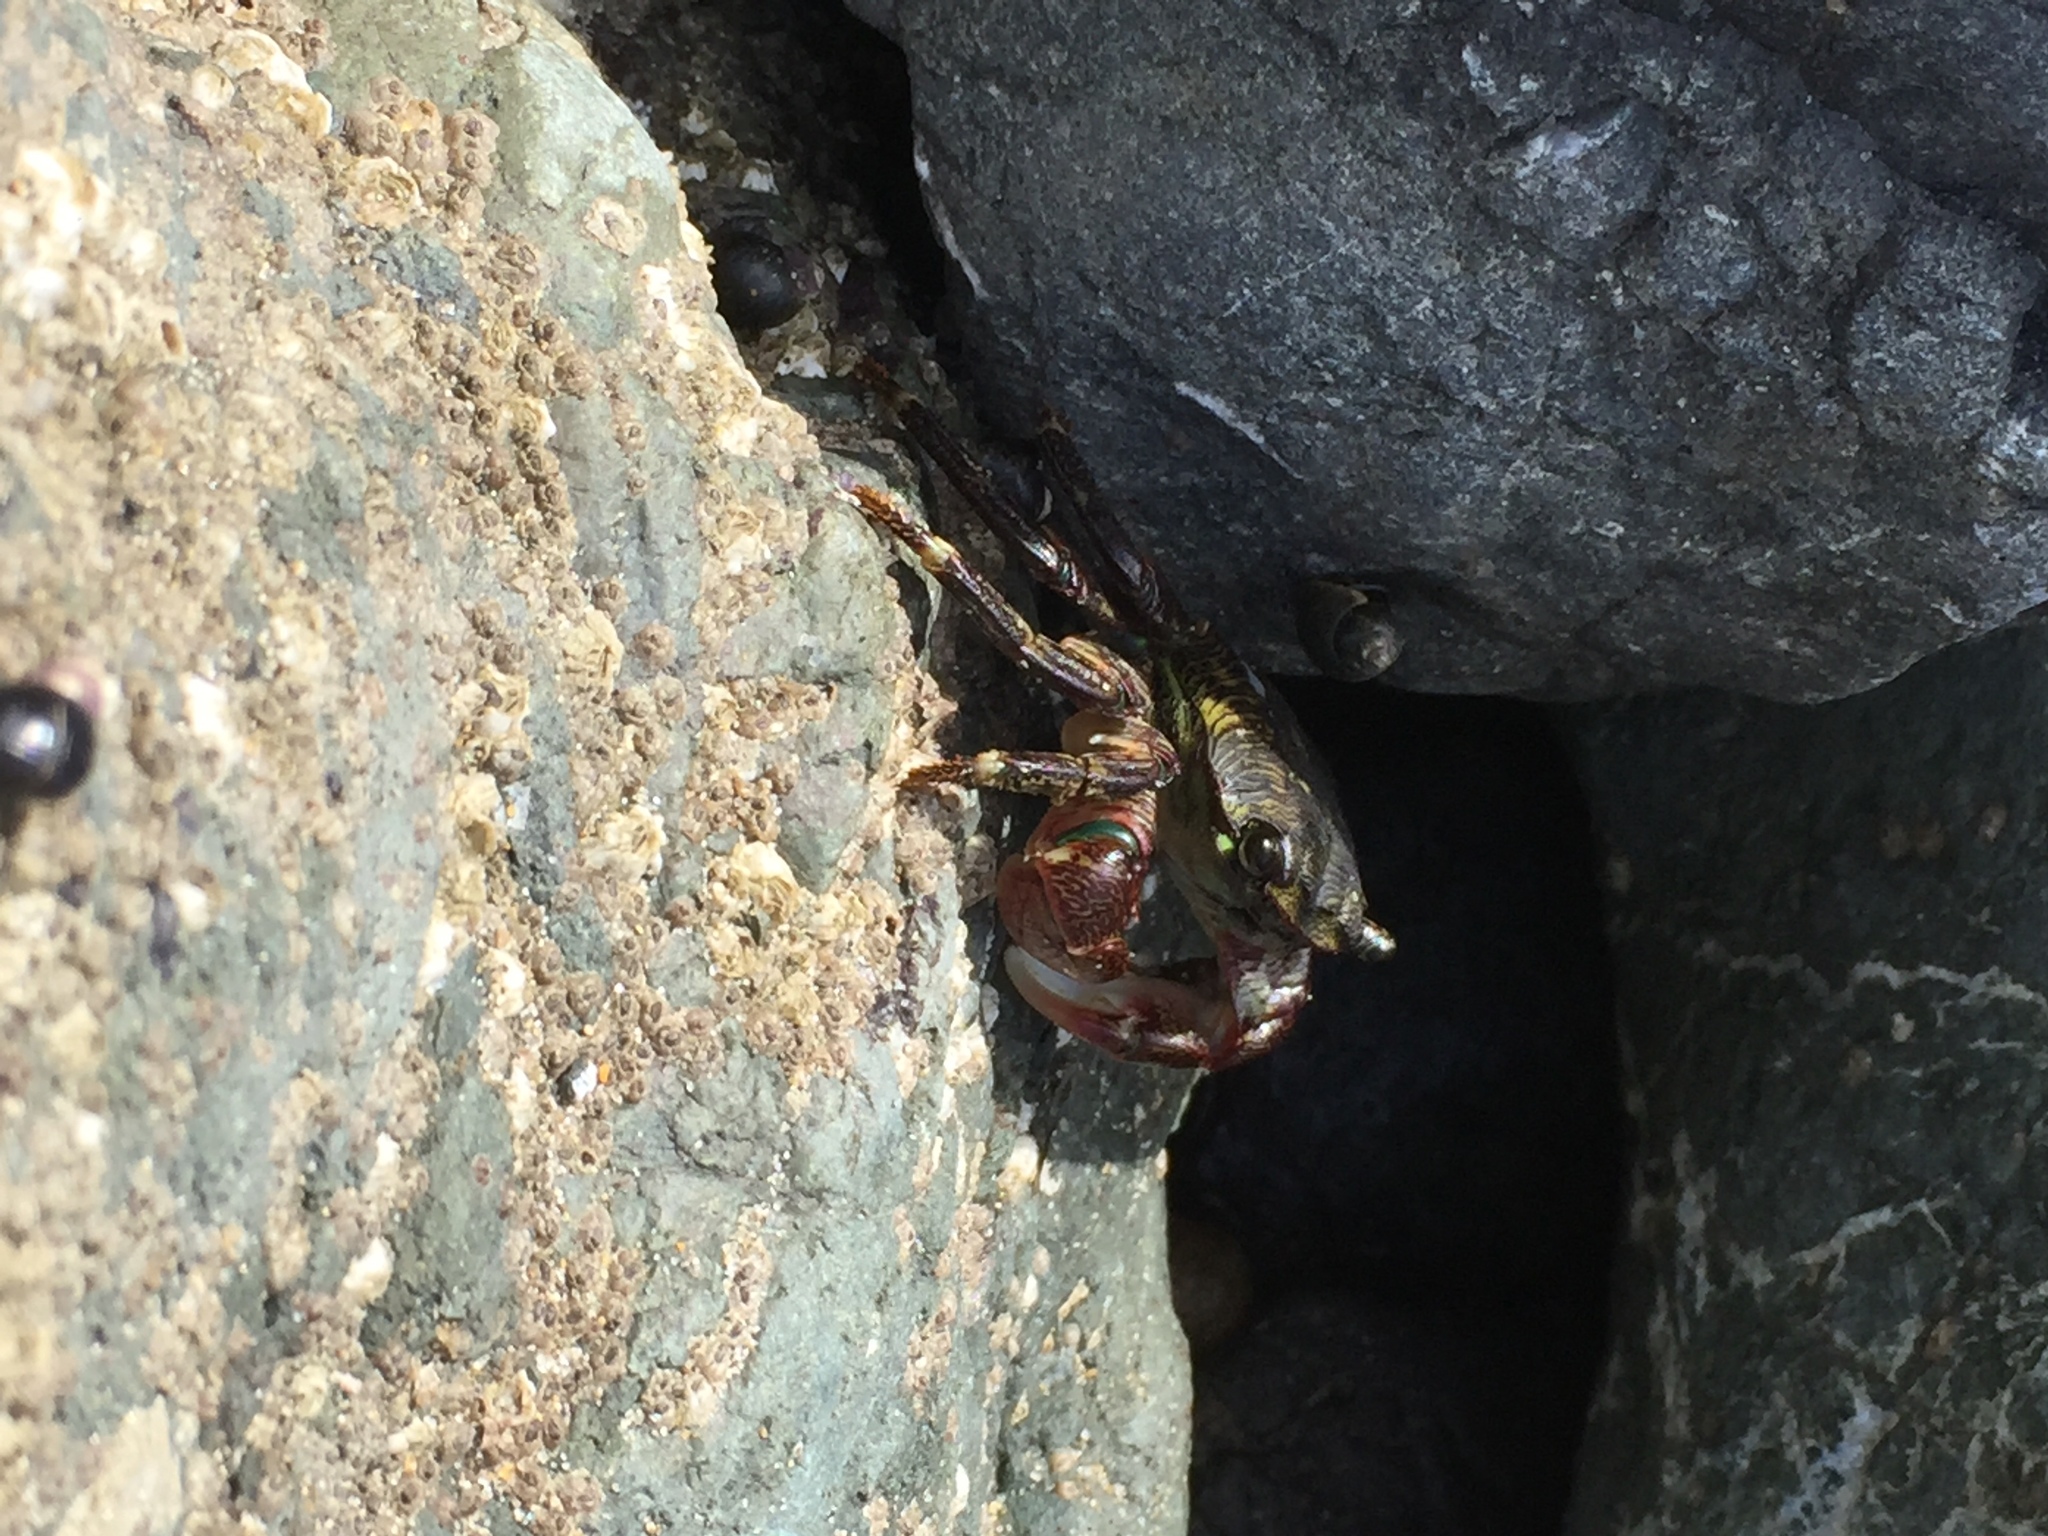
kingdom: Animalia
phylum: Arthropoda
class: Malacostraca
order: Decapoda
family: Grapsidae
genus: Pachygrapsus
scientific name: Pachygrapsus crassipes
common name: Striped shore crab
